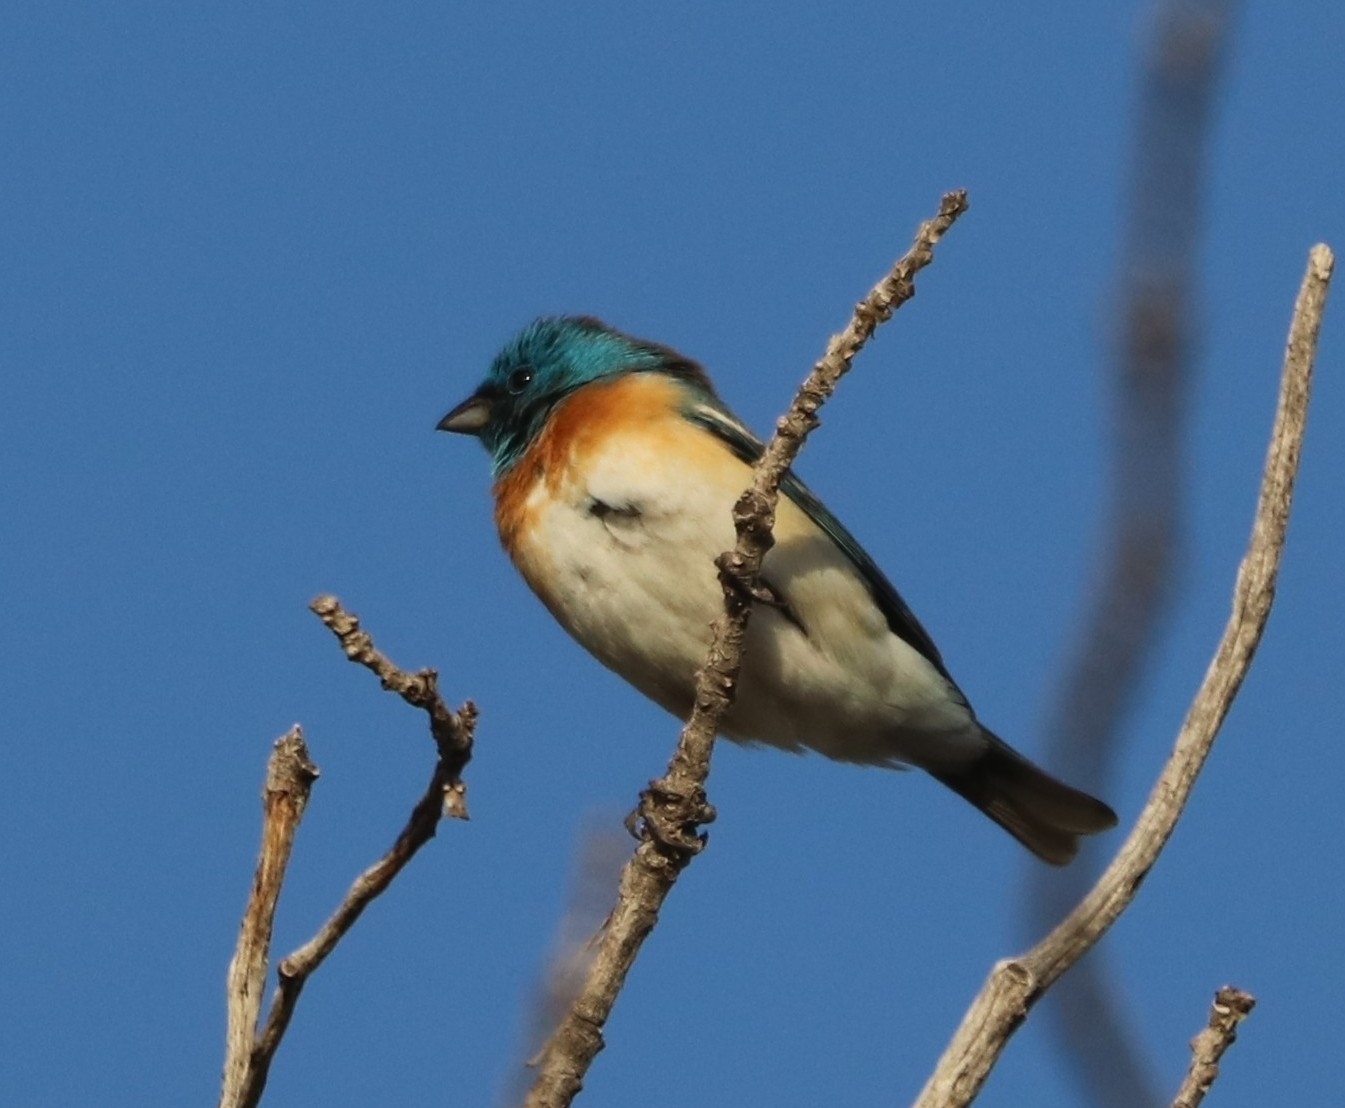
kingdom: Animalia
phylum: Chordata
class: Aves
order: Passeriformes
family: Cardinalidae
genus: Passerina
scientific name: Passerina amoena
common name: Lazuli bunting
